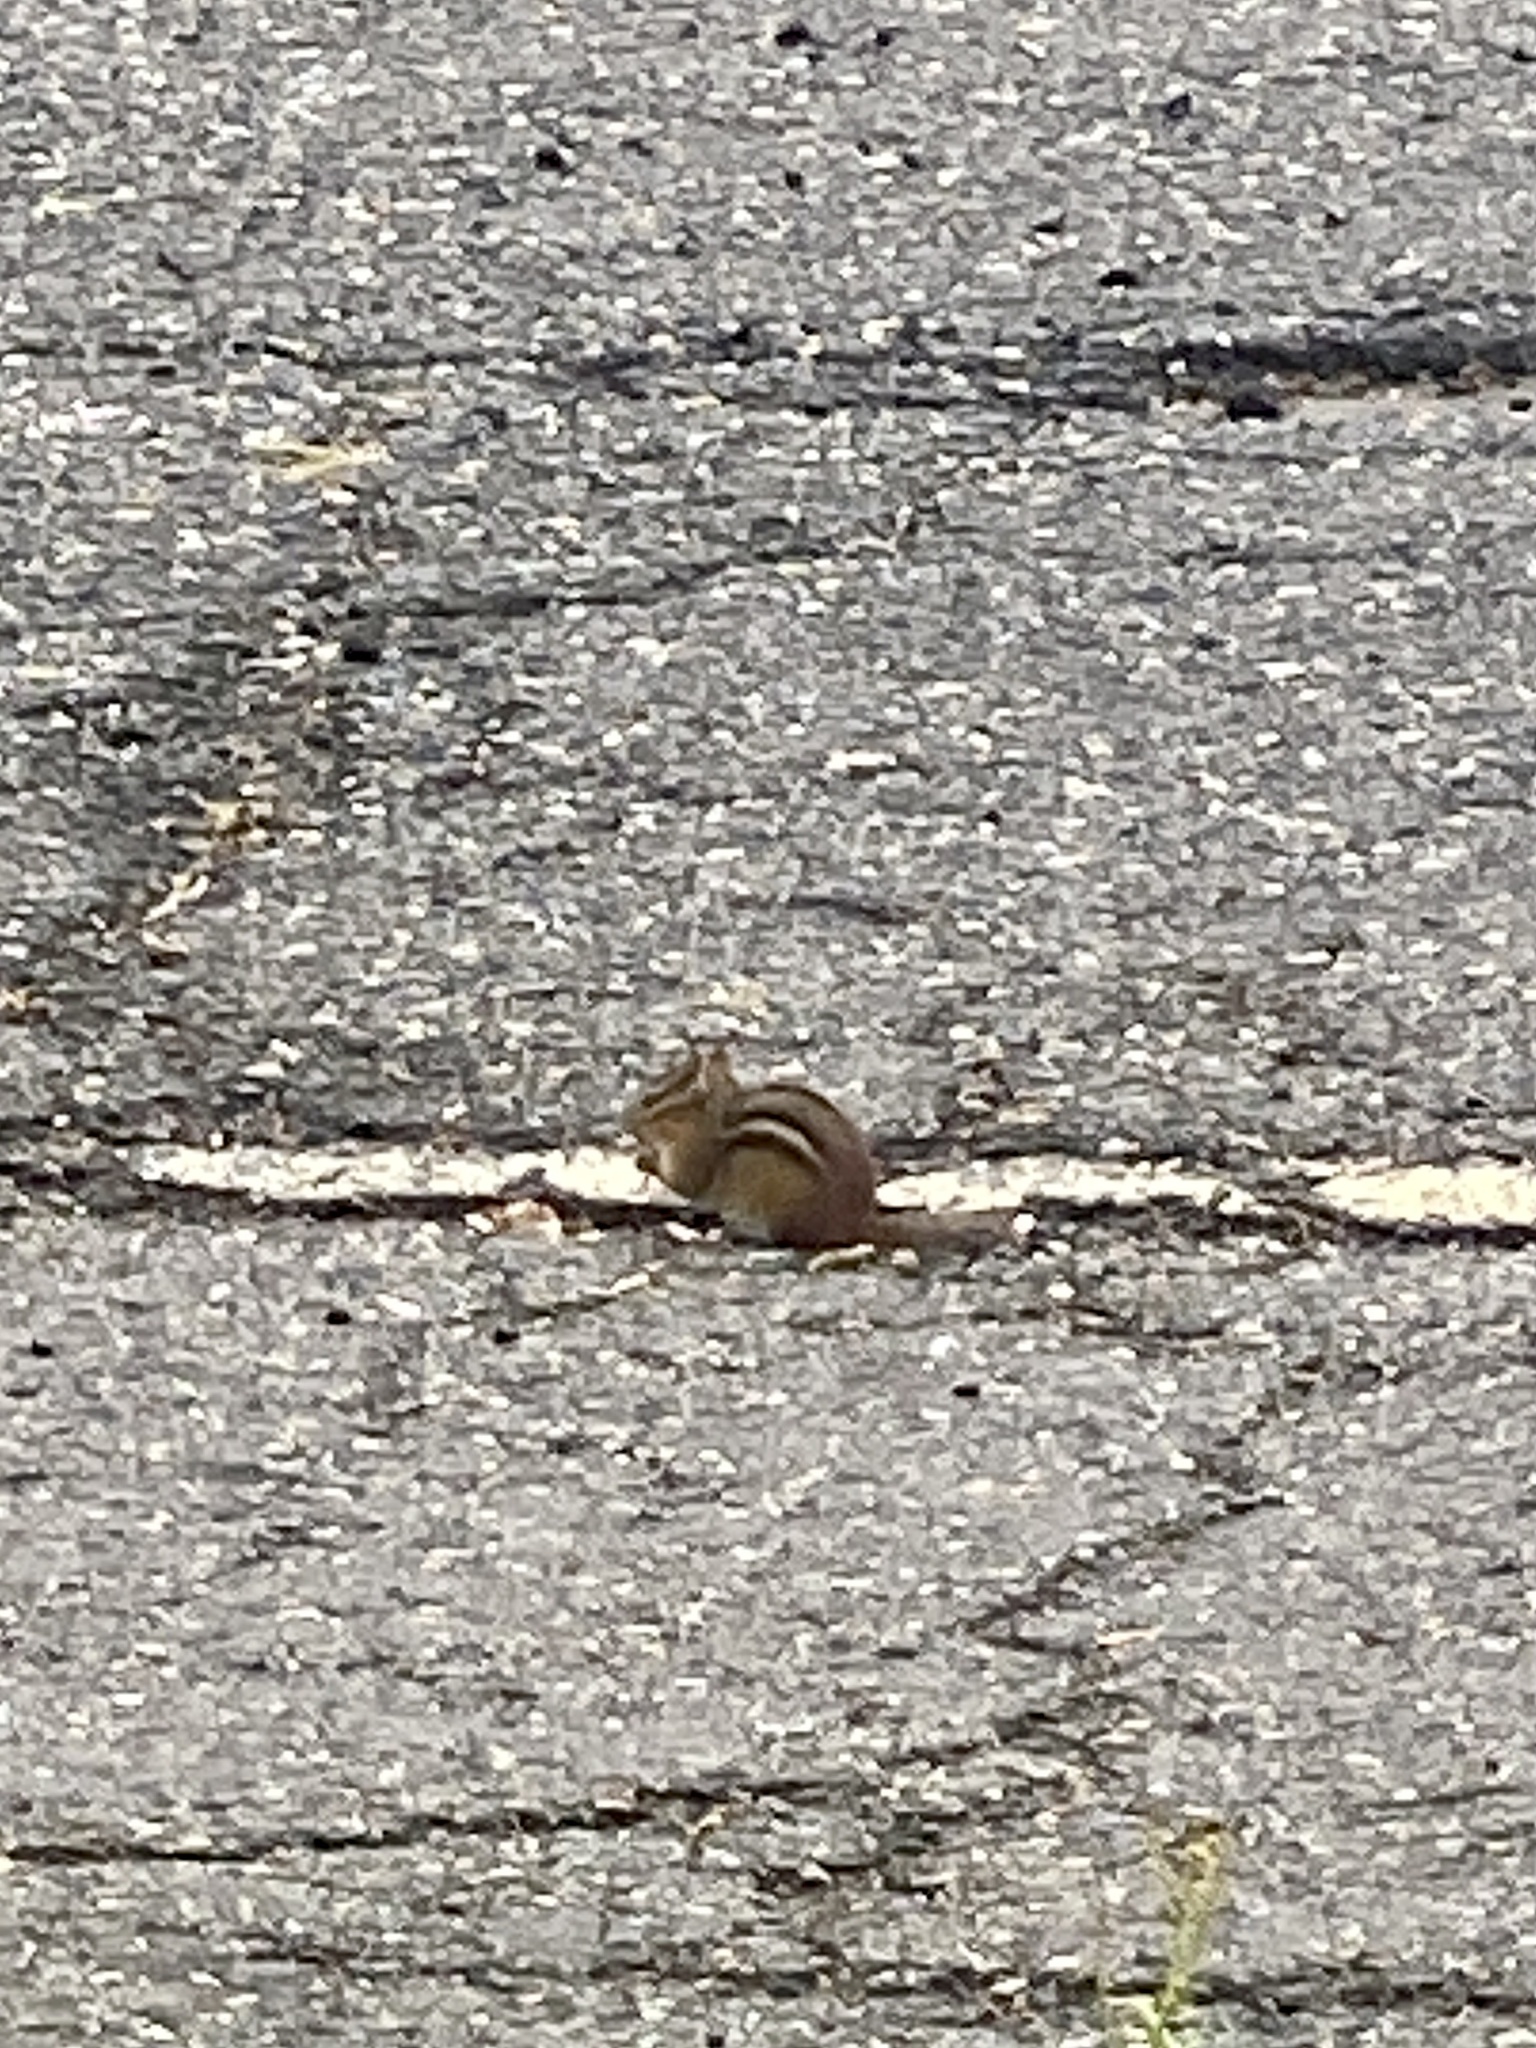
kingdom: Animalia
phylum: Chordata
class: Mammalia
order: Rodentia
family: Sciuridae
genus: Tamias
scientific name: Tamias striatus
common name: Eastern chipmunk
